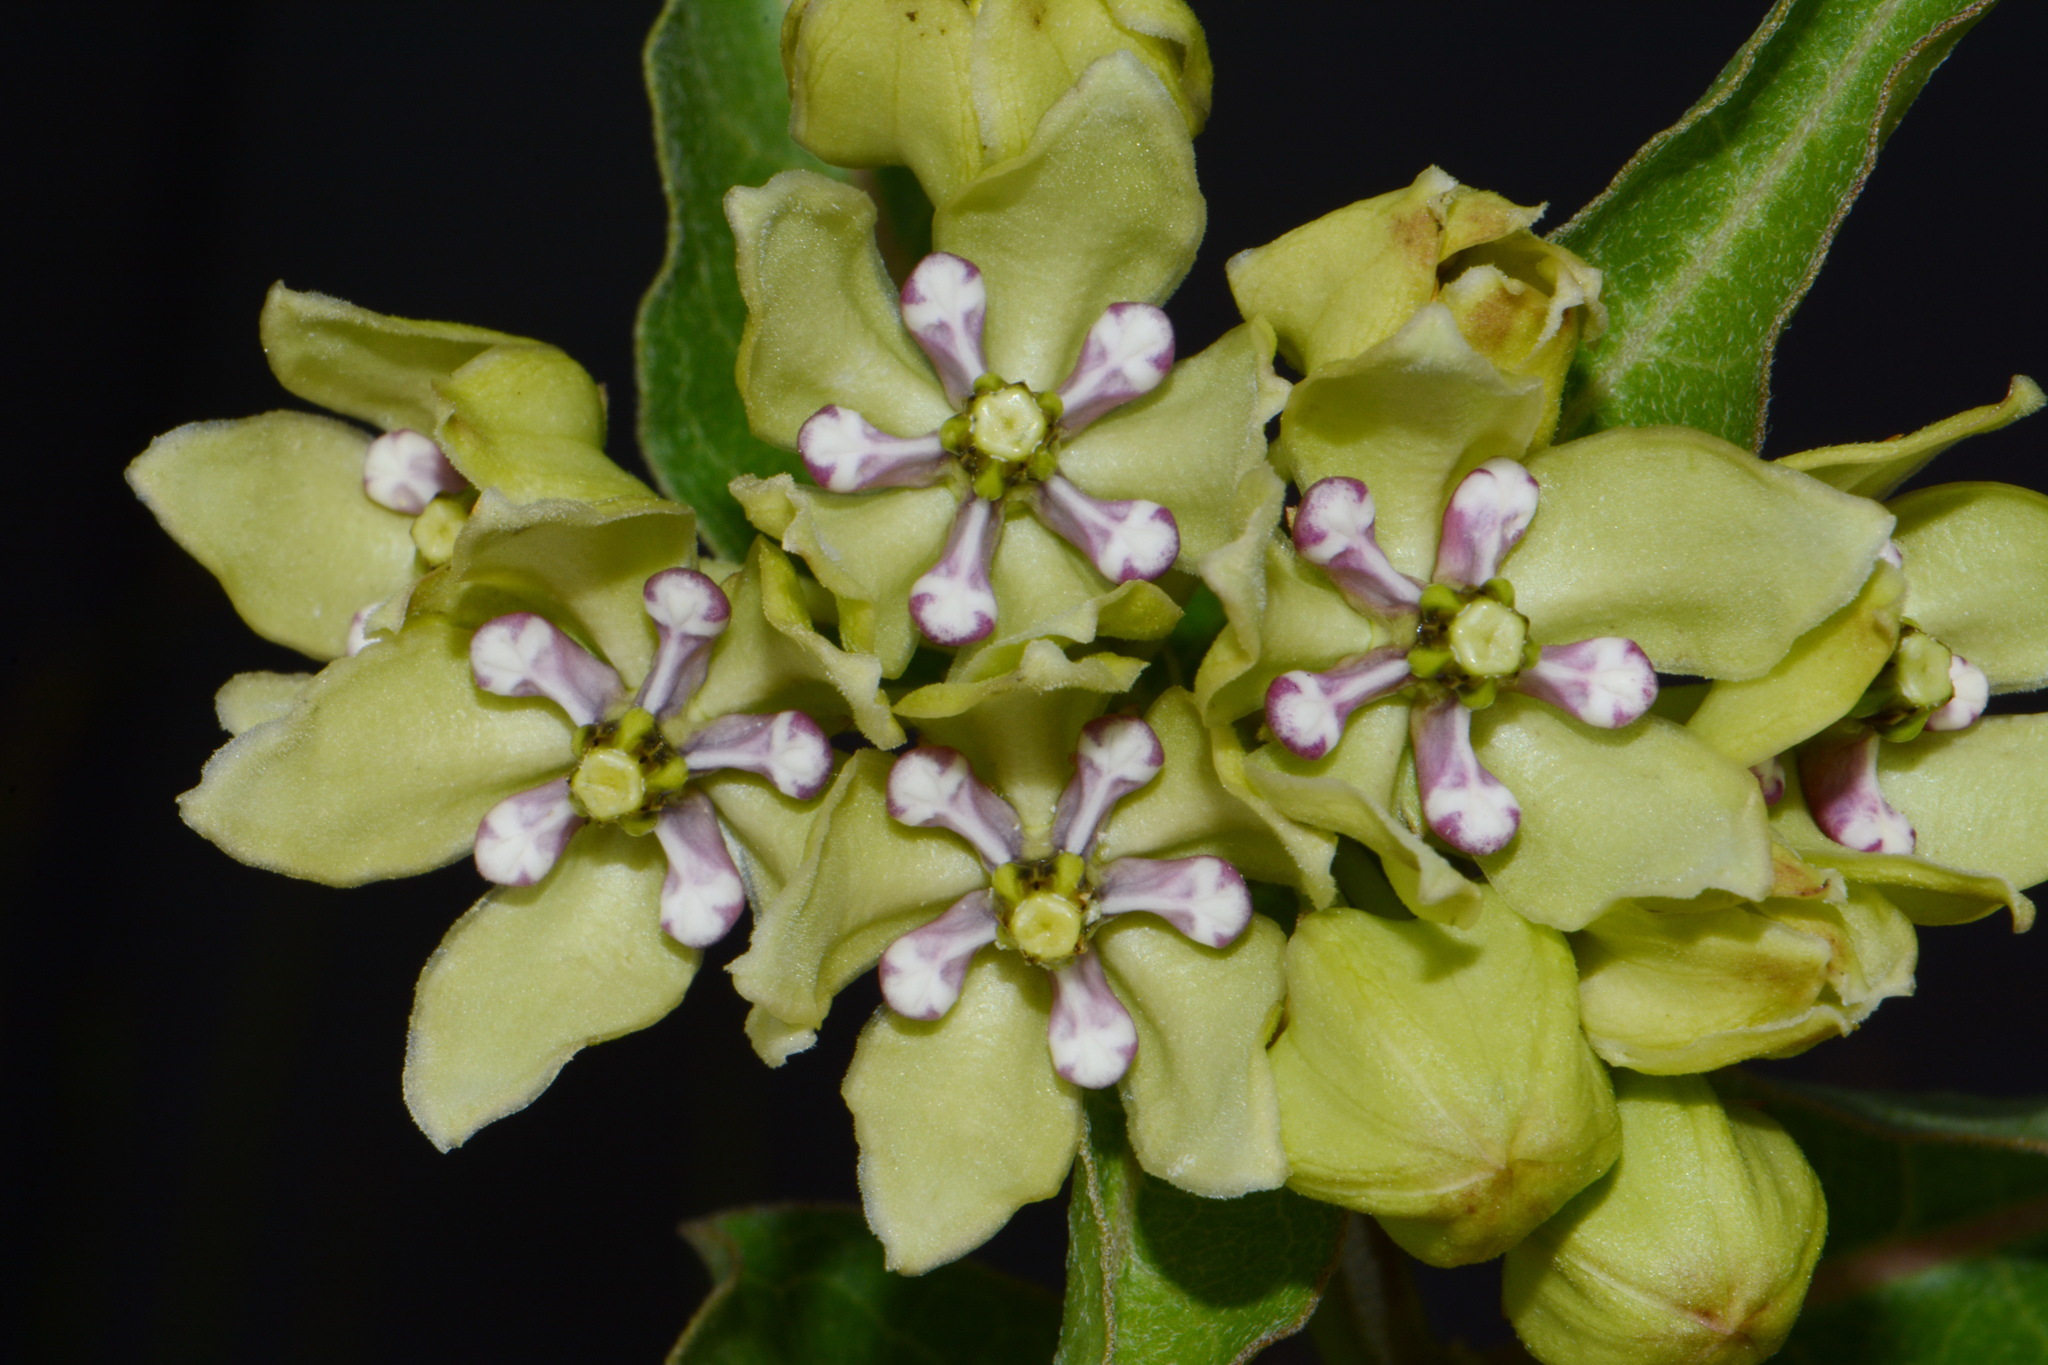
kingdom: Plantae
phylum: Tracheophyta
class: Magnoliopsida
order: Gentianales
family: Apocynaceae
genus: Asclepias
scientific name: Asclepias viridis
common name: Antelope-horns
